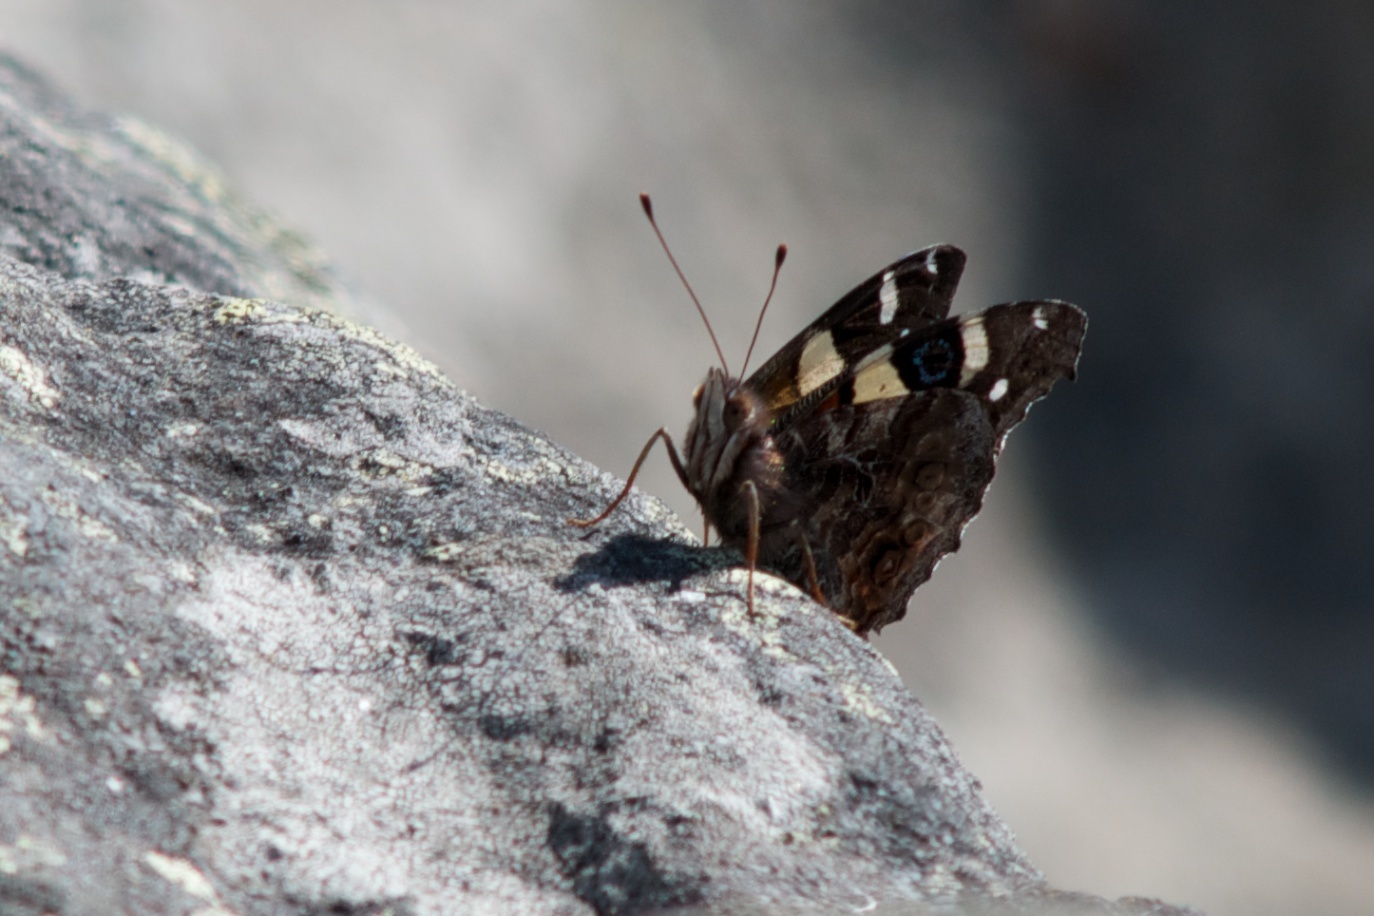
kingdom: Animalia
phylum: Arthropoda
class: Insecta
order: Lepidoptera
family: Nymphalidae
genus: Vanessa
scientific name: Vanessa itea
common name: Yellow admiral
